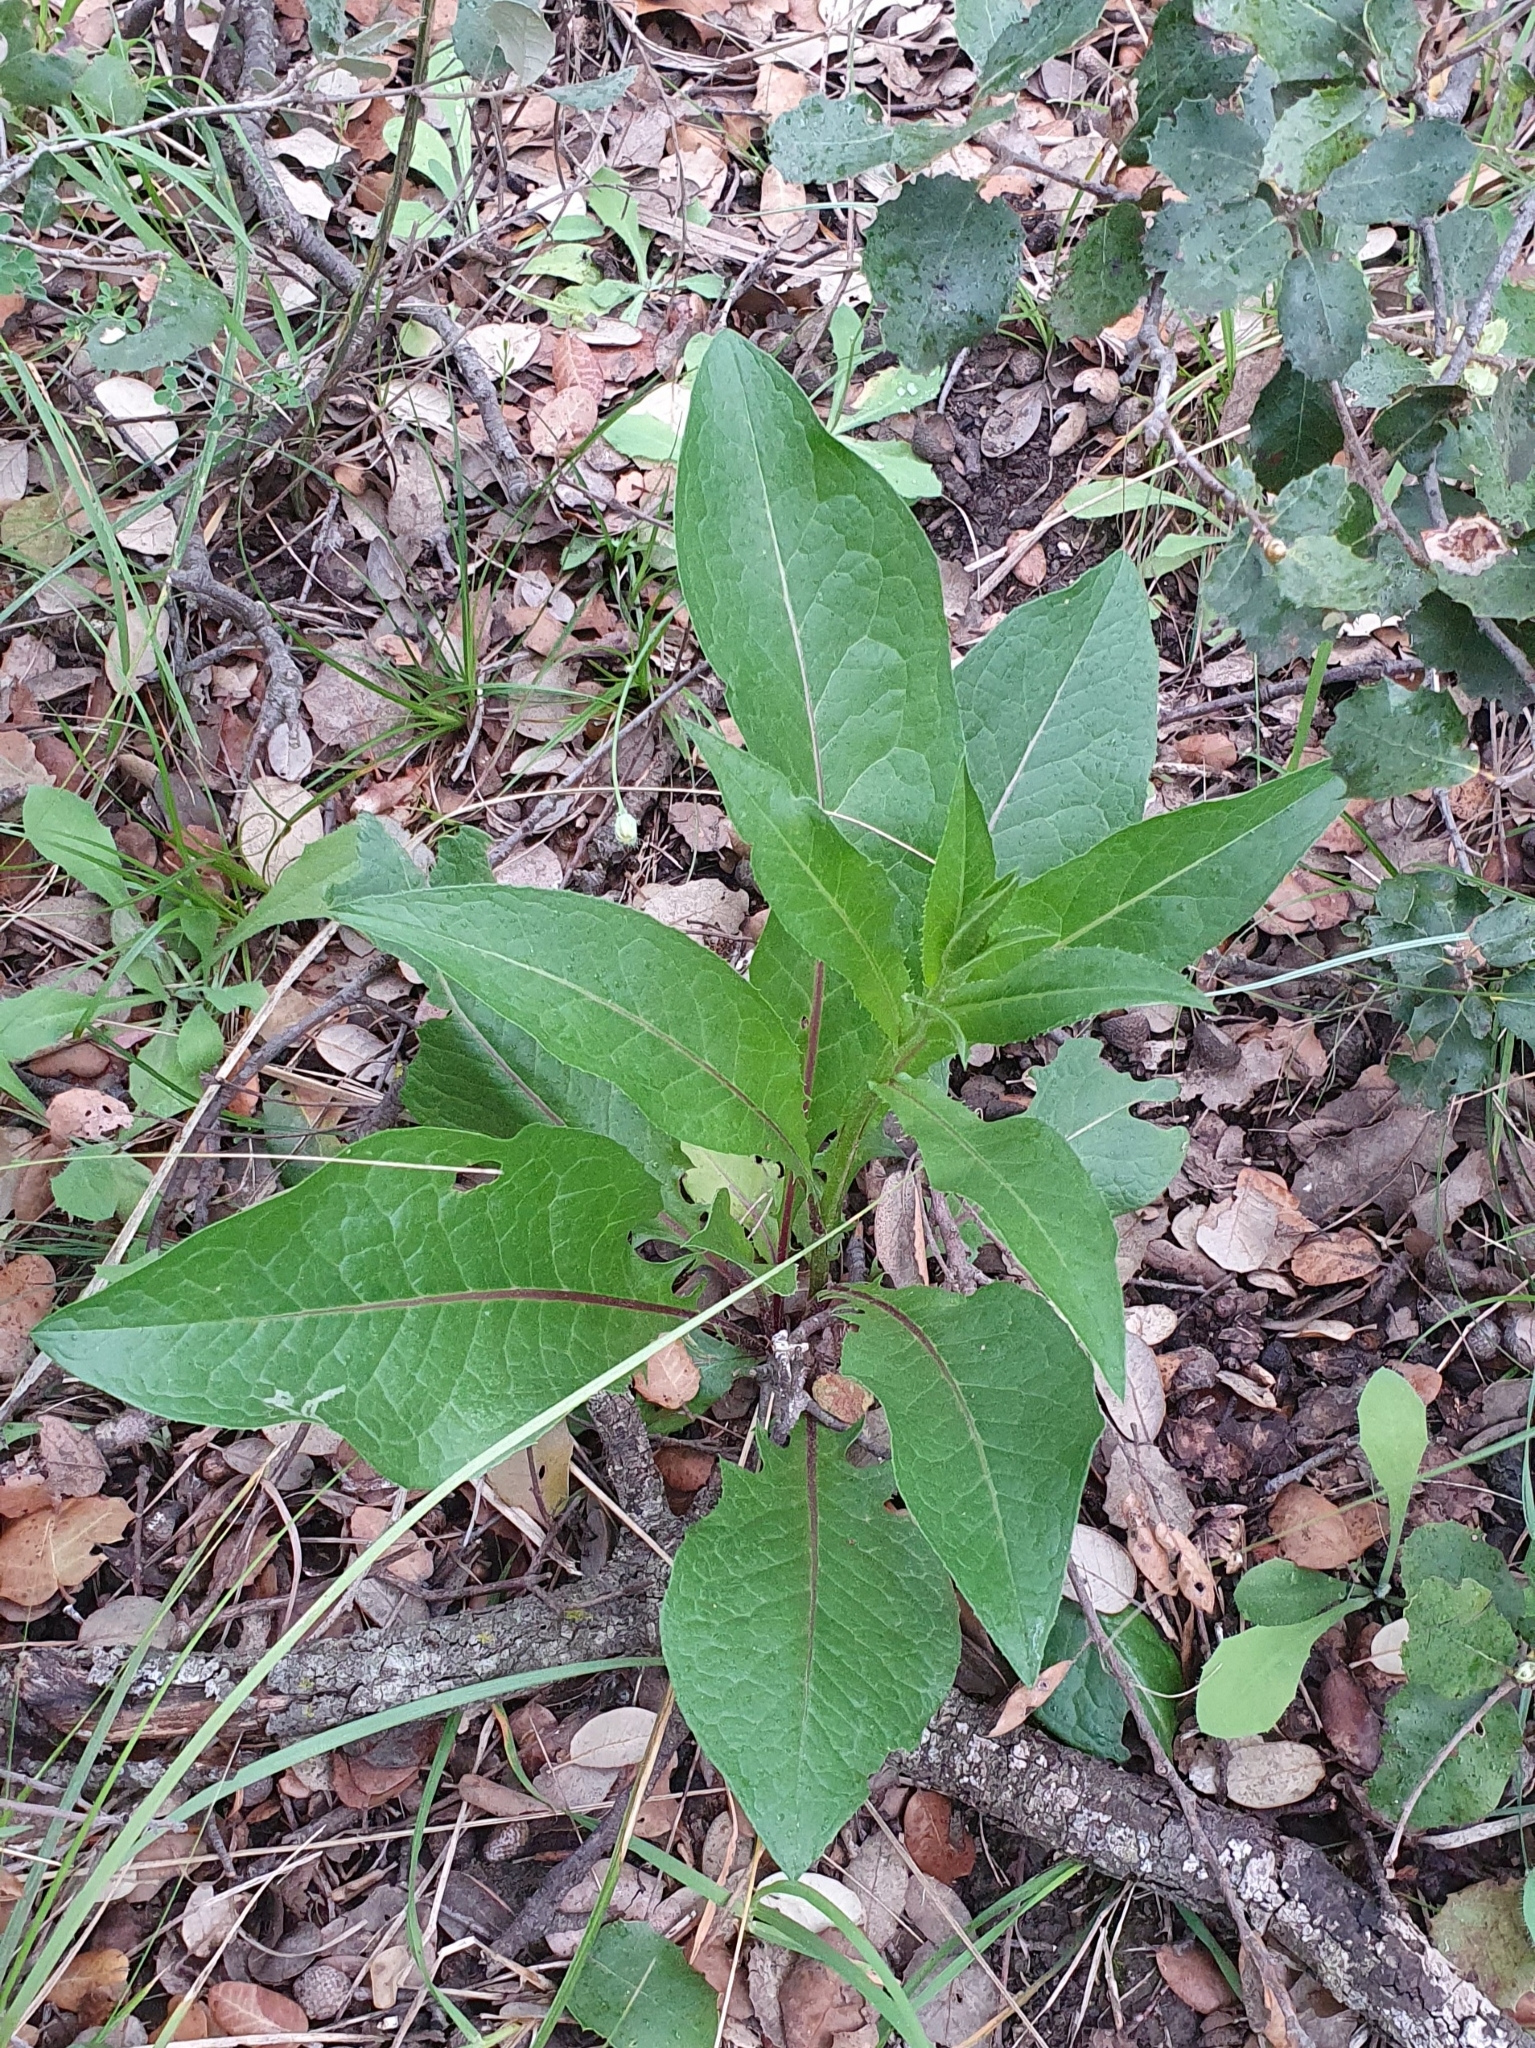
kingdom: Plantae
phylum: Tracheophyta
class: Magnoliopsida
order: Asterales
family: Asteraceae
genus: Klasea
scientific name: Klasea flavescens
